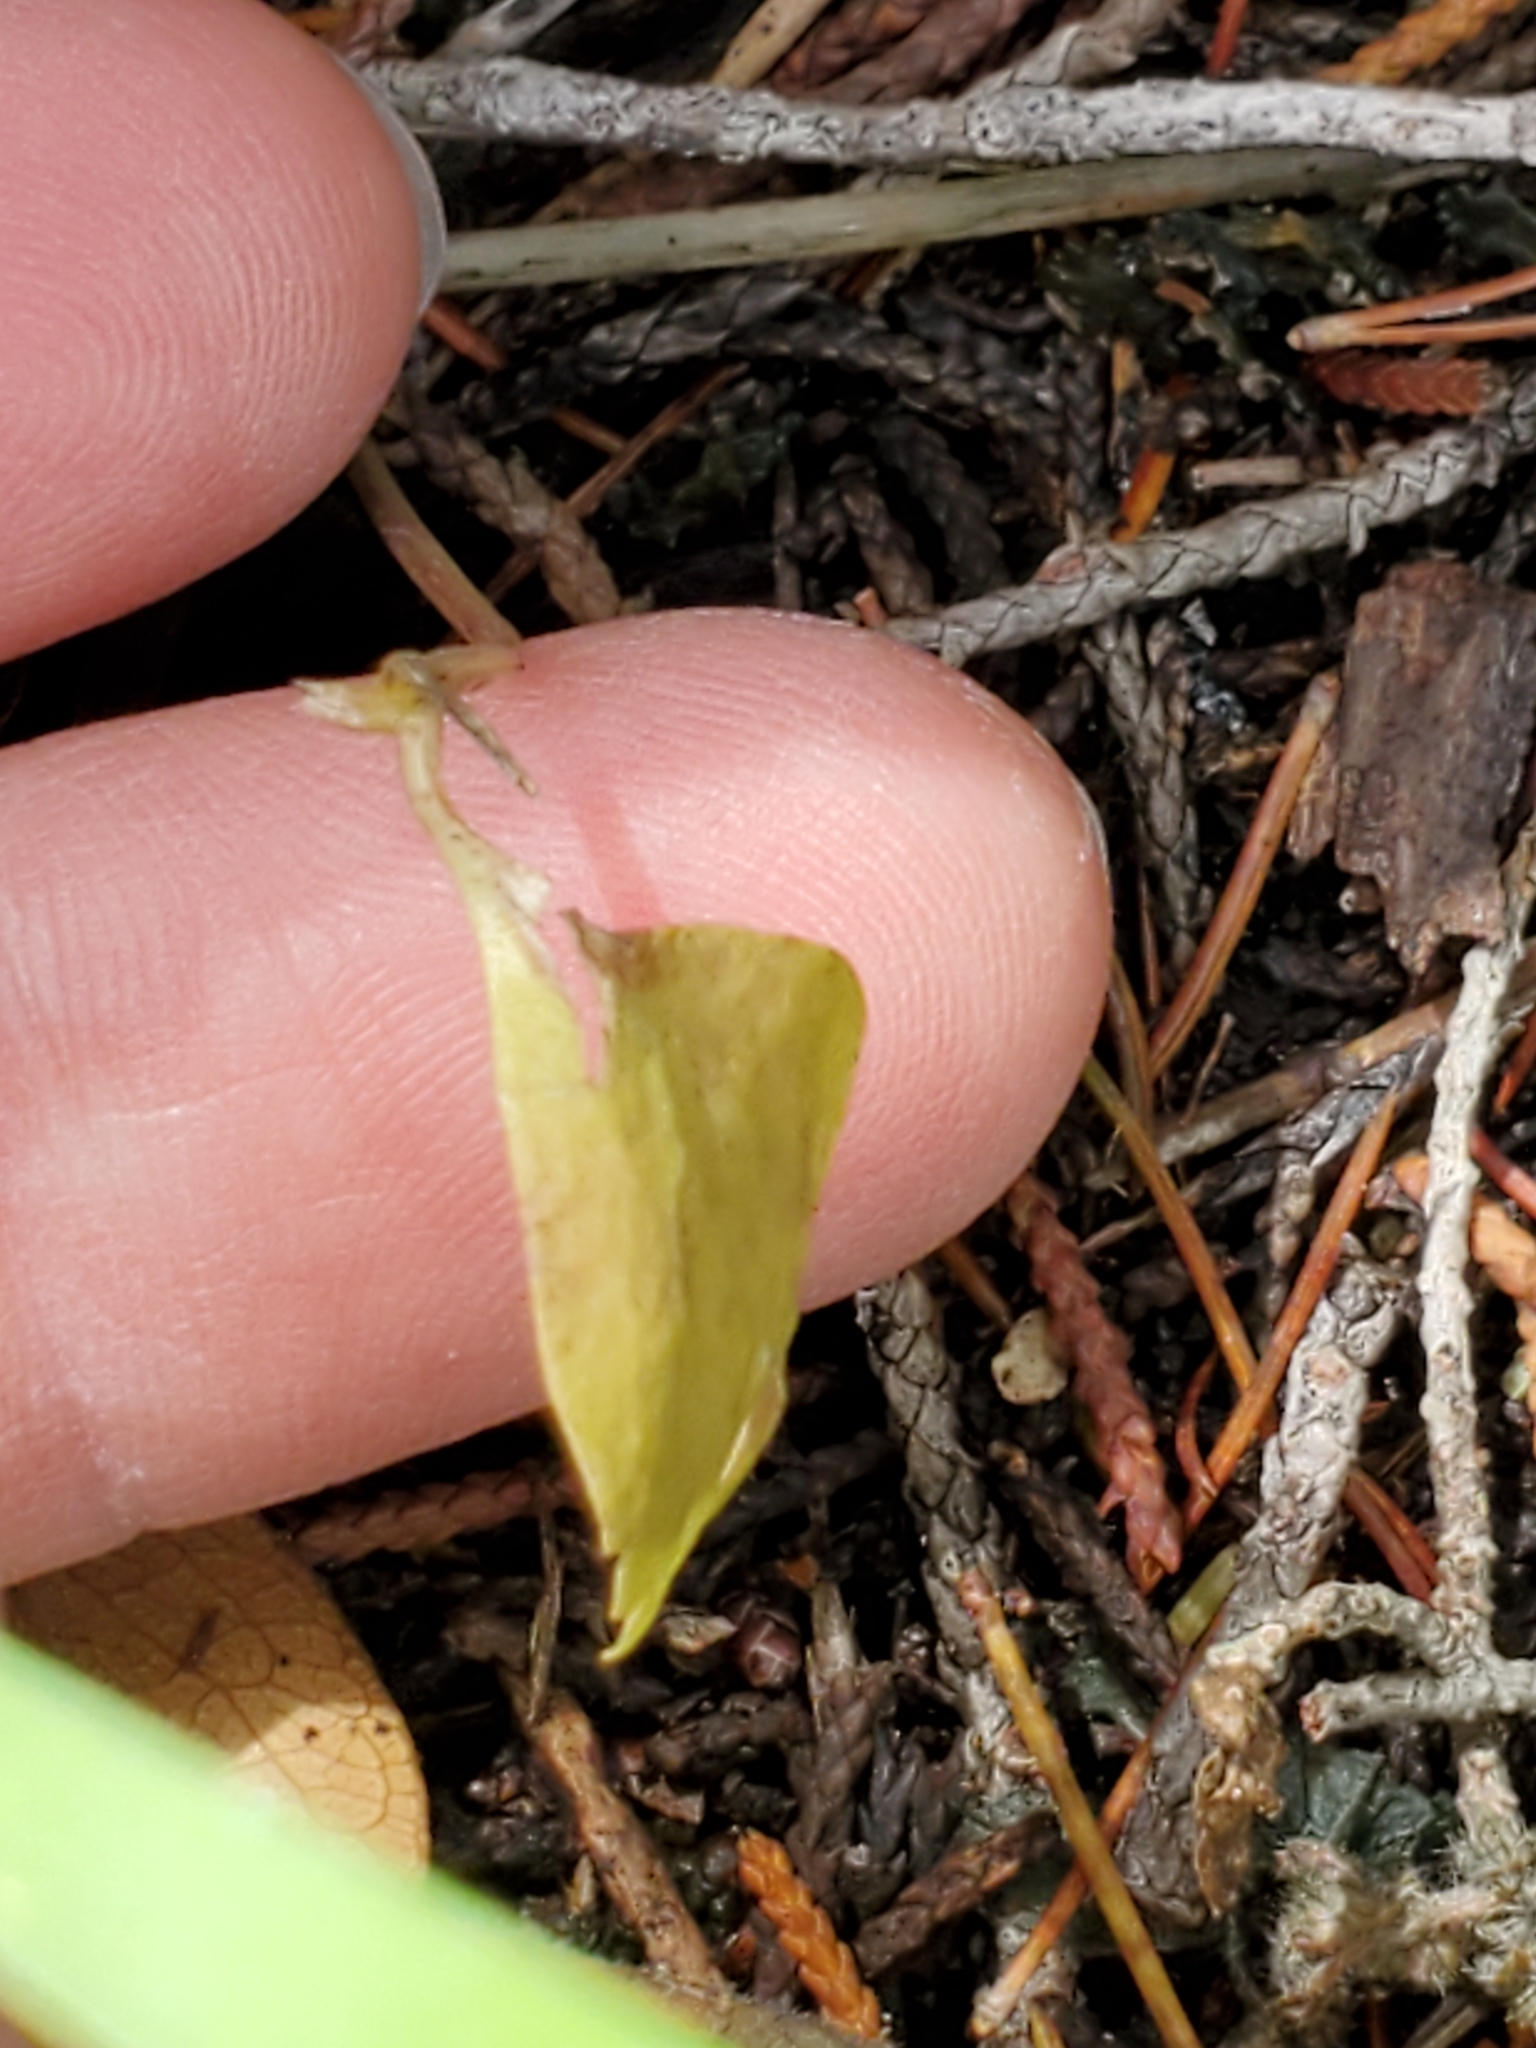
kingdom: Plantae
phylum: Tracheophyta
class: Magnoliopsida
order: Ranunculales
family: Ranunculaceae
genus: Anemone
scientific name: Anemone edwardsiana
